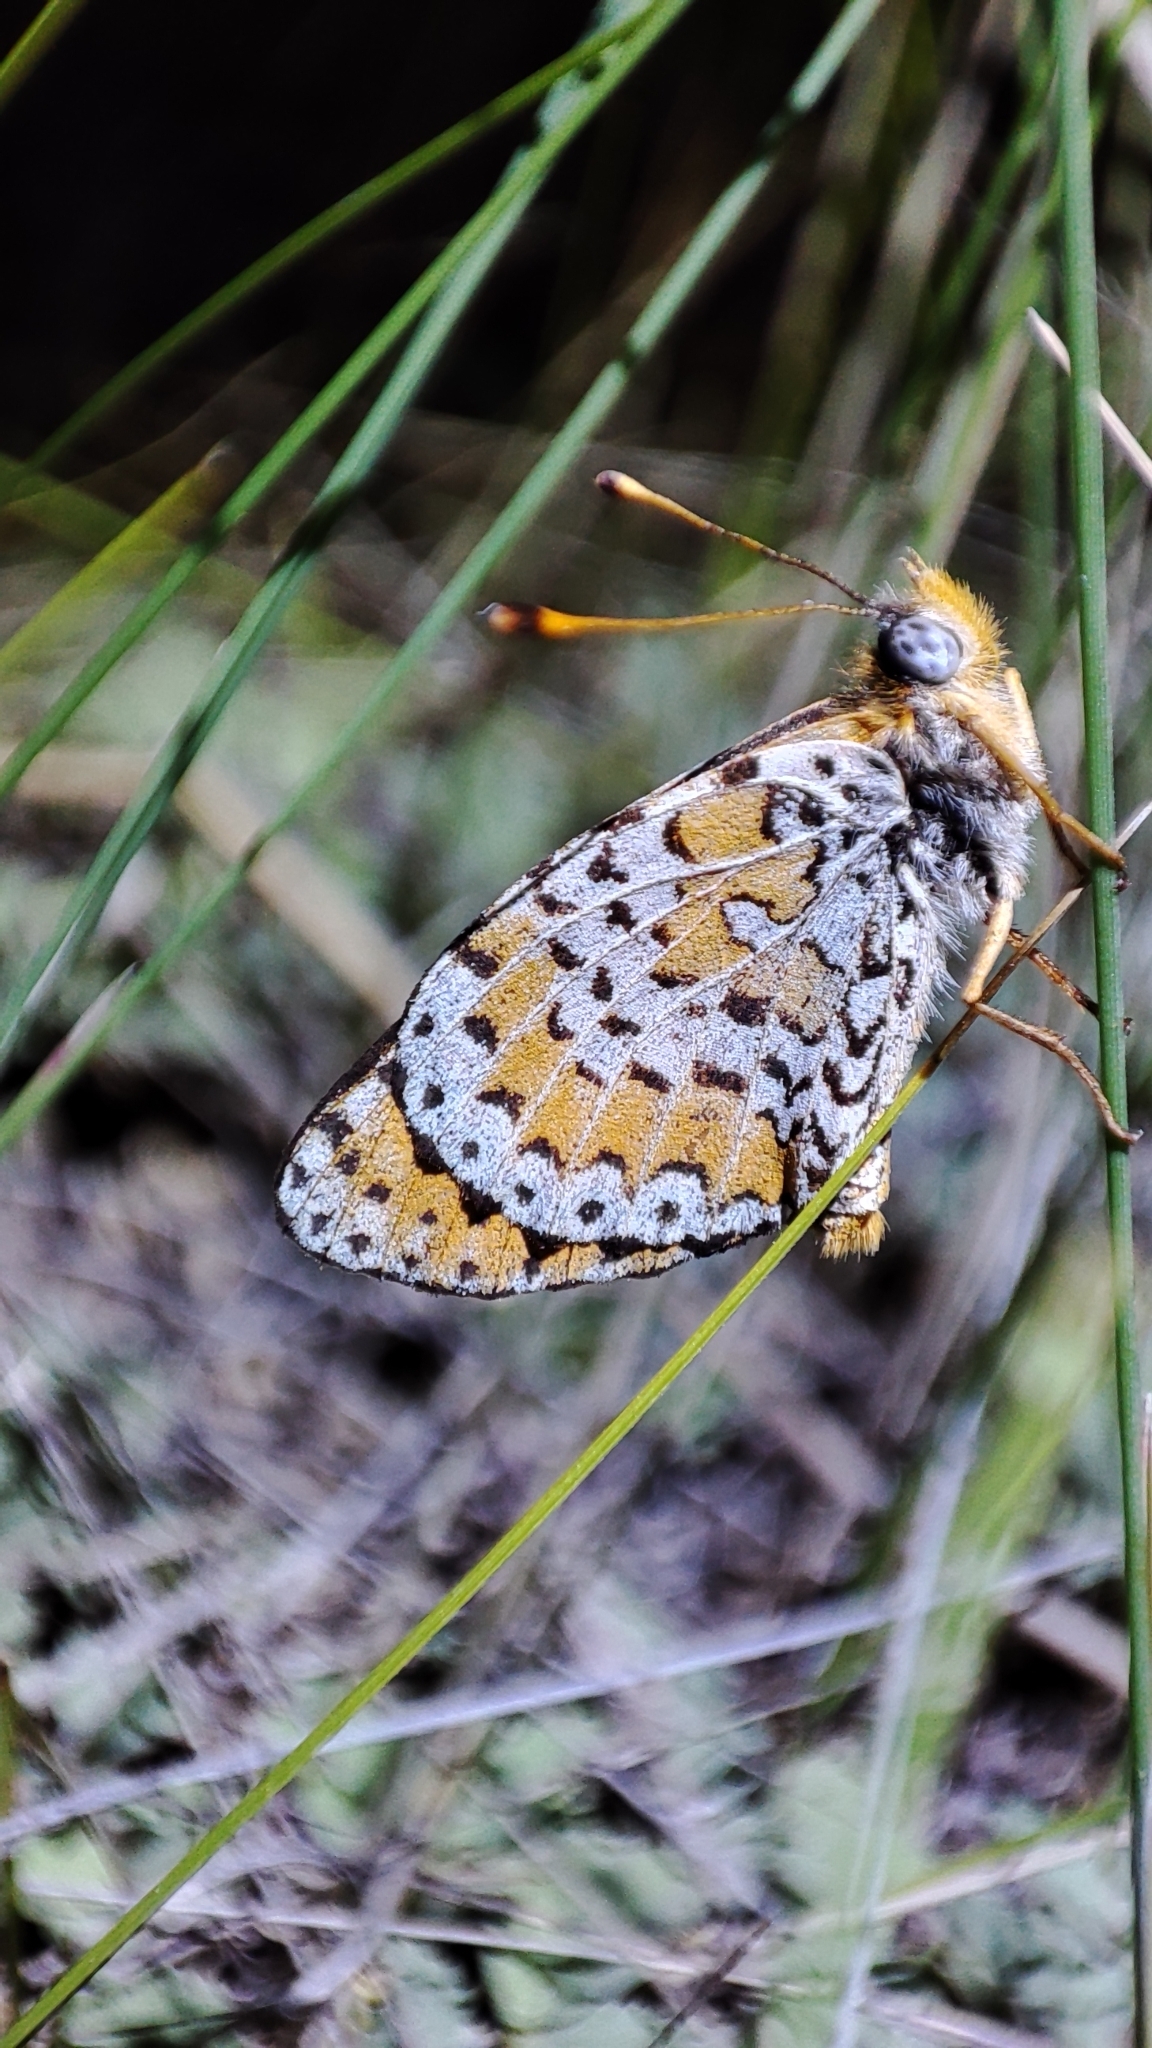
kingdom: Animalia
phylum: Arthropoda
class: Insecta
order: Lepidoptera
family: Nymphalidae
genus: Melitaea
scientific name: Melitaea didymoides
